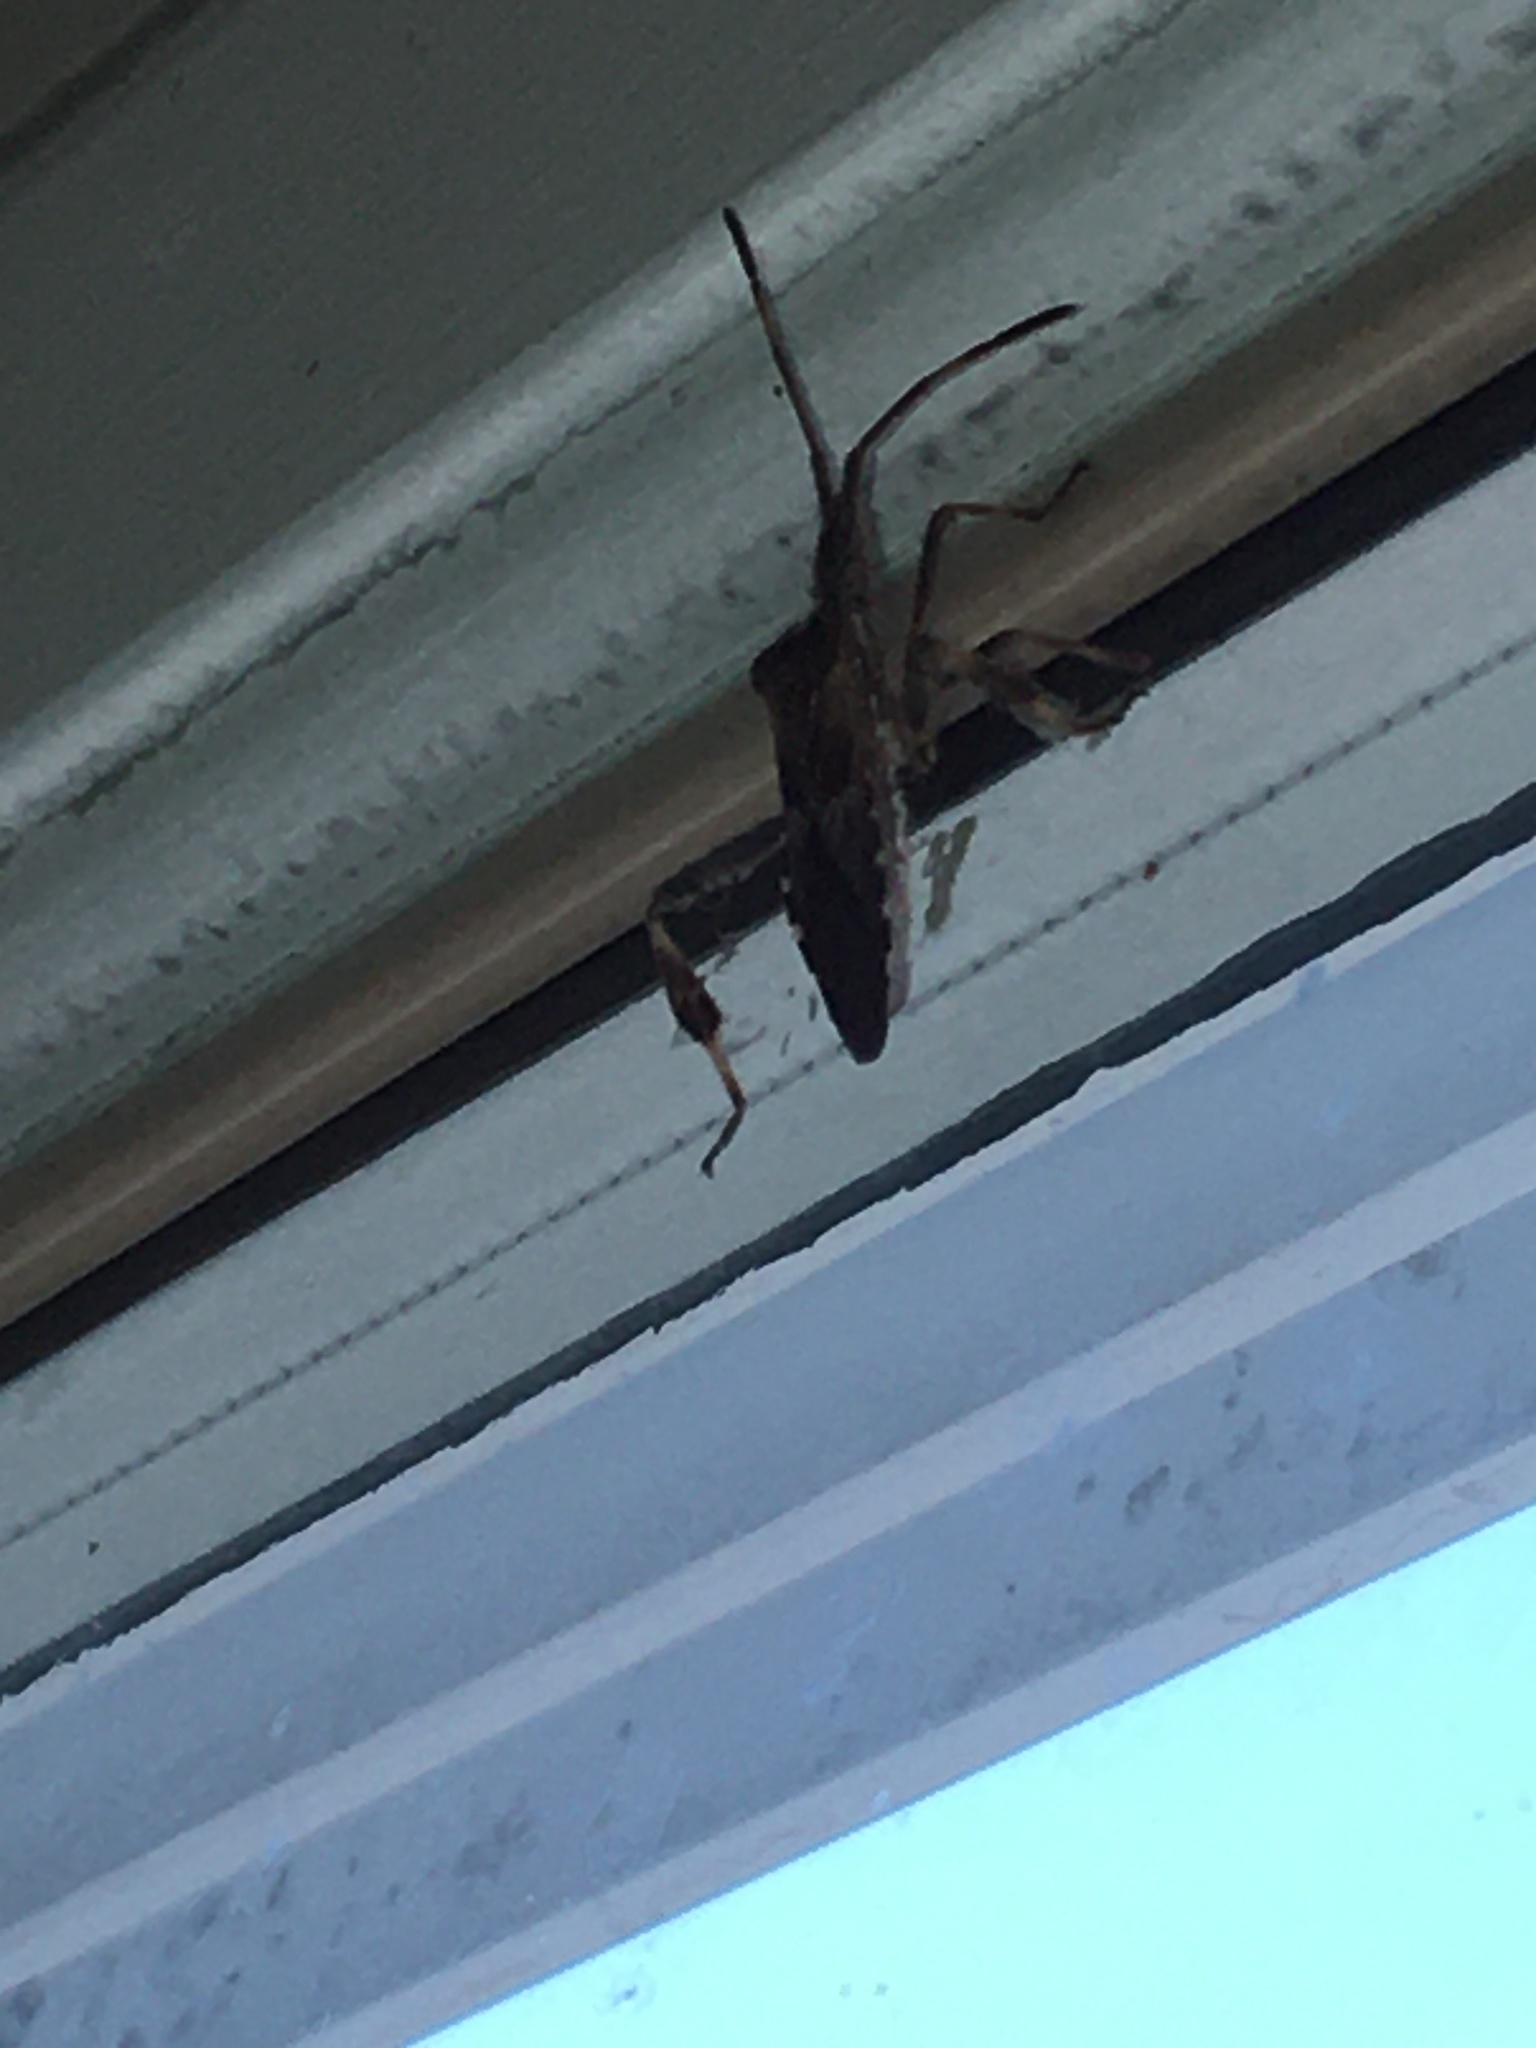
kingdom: Animalia
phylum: Arthropoda
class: Insecta
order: Hemiptera
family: Coreidae
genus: Leptoglossus
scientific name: Leptoglossus occidentalis
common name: Western conifer-seed bug
